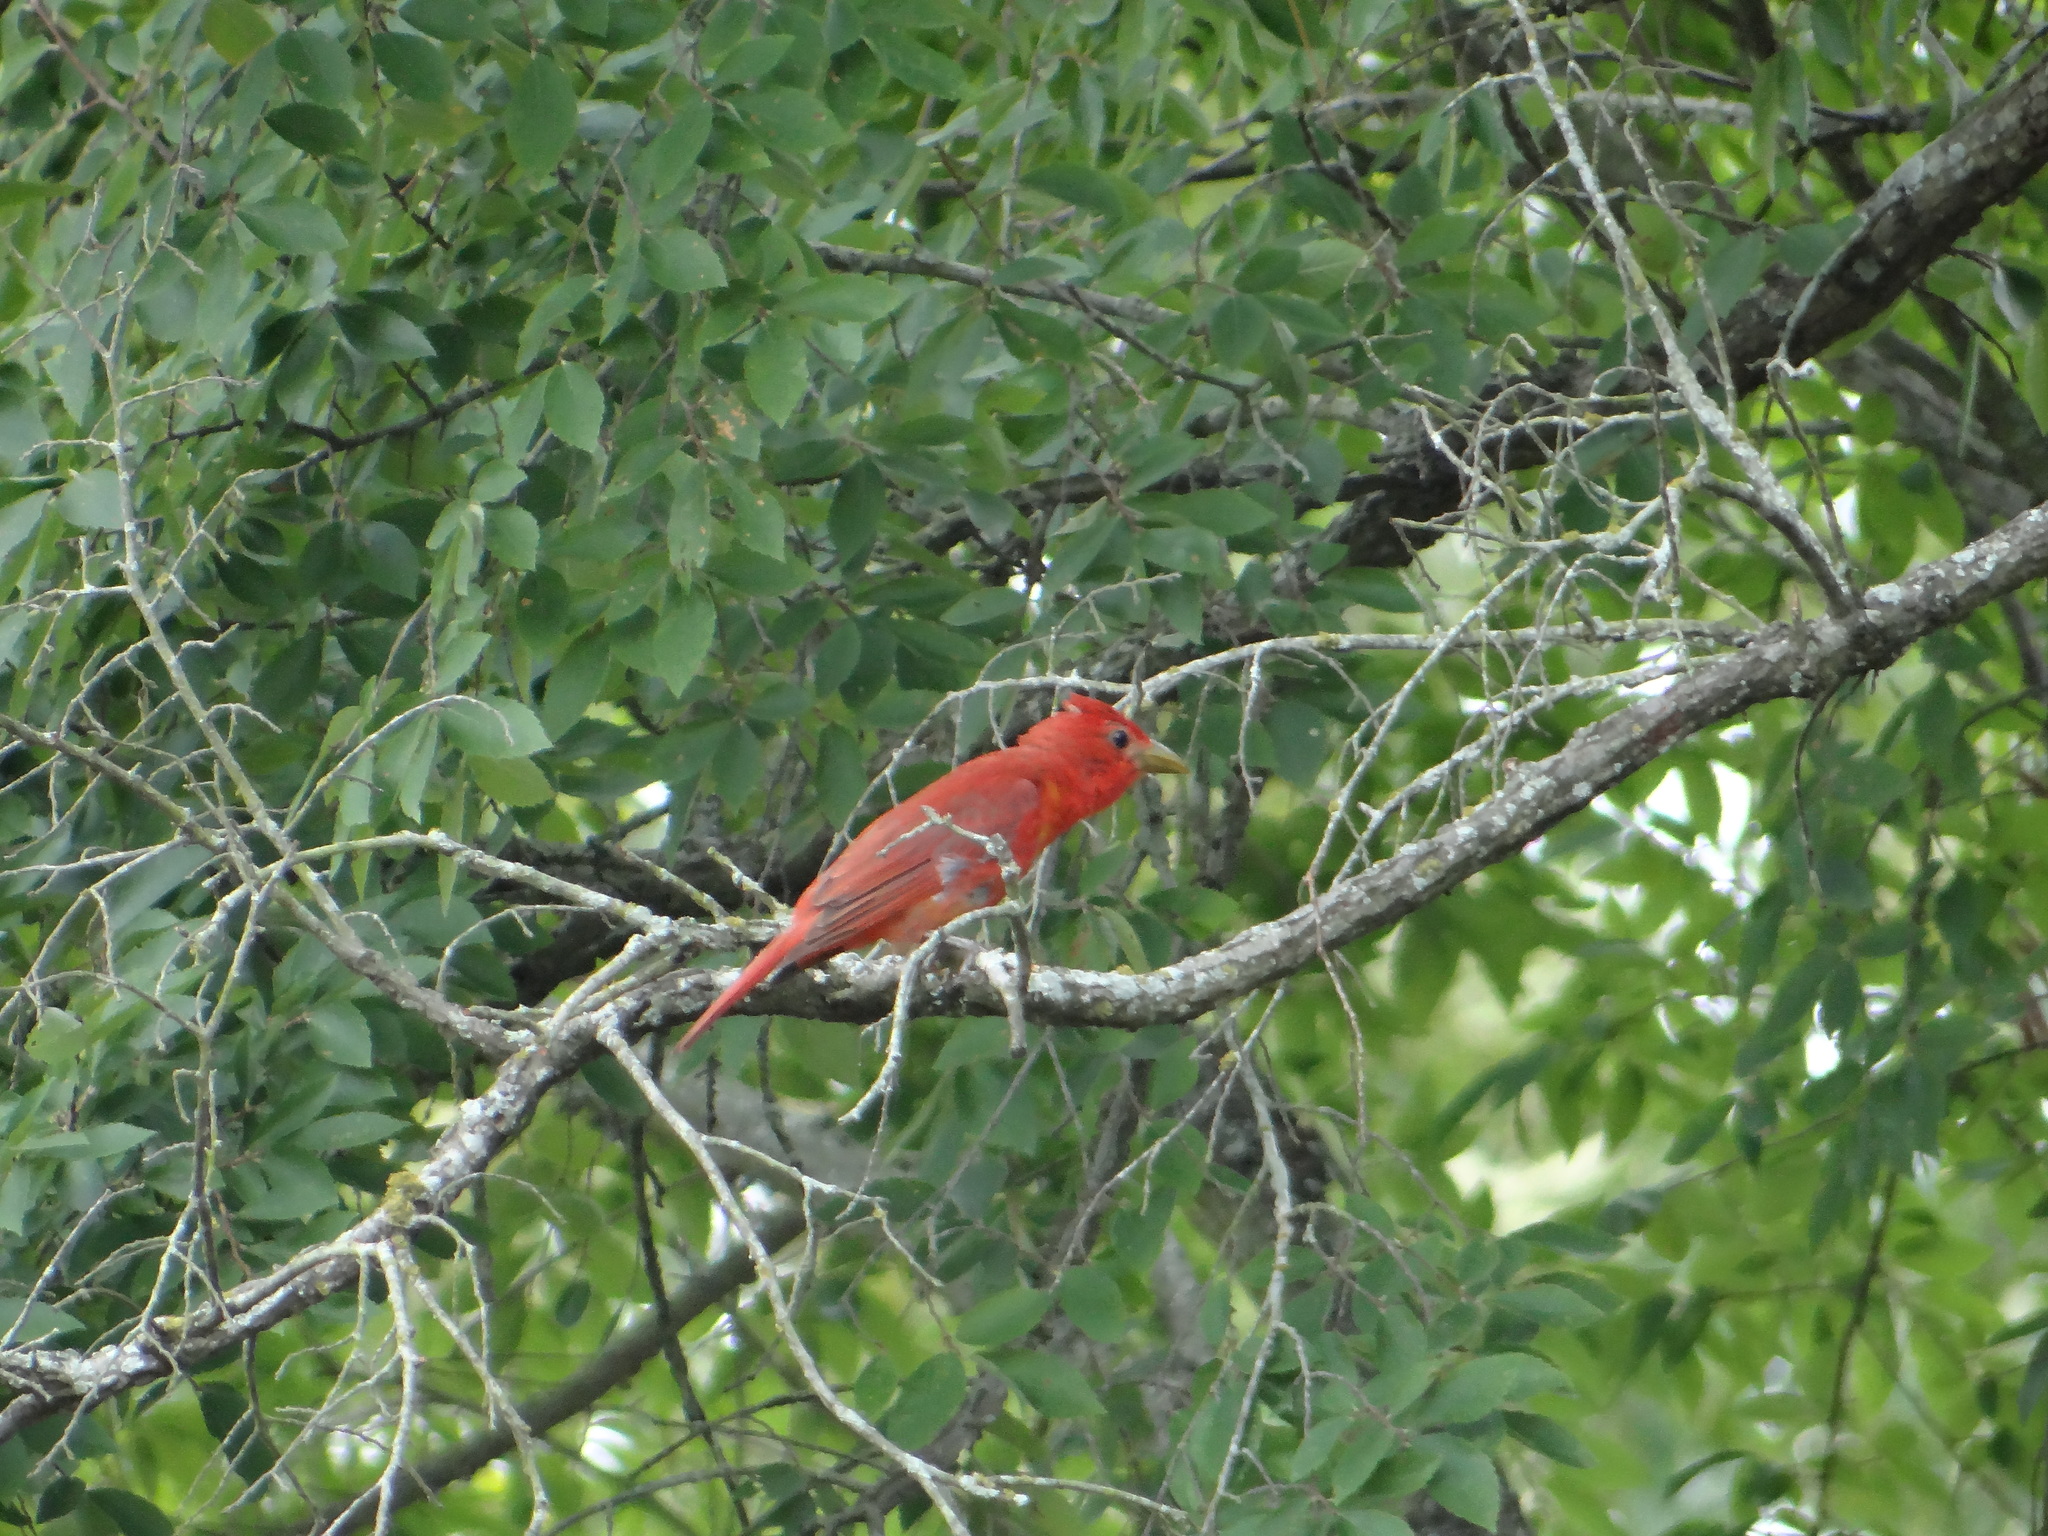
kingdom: Animalia
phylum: Chordata
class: Aves
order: Passeriformes
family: Cardinalidae
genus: Piranga
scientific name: Piranga rubra
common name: Summer tanager
